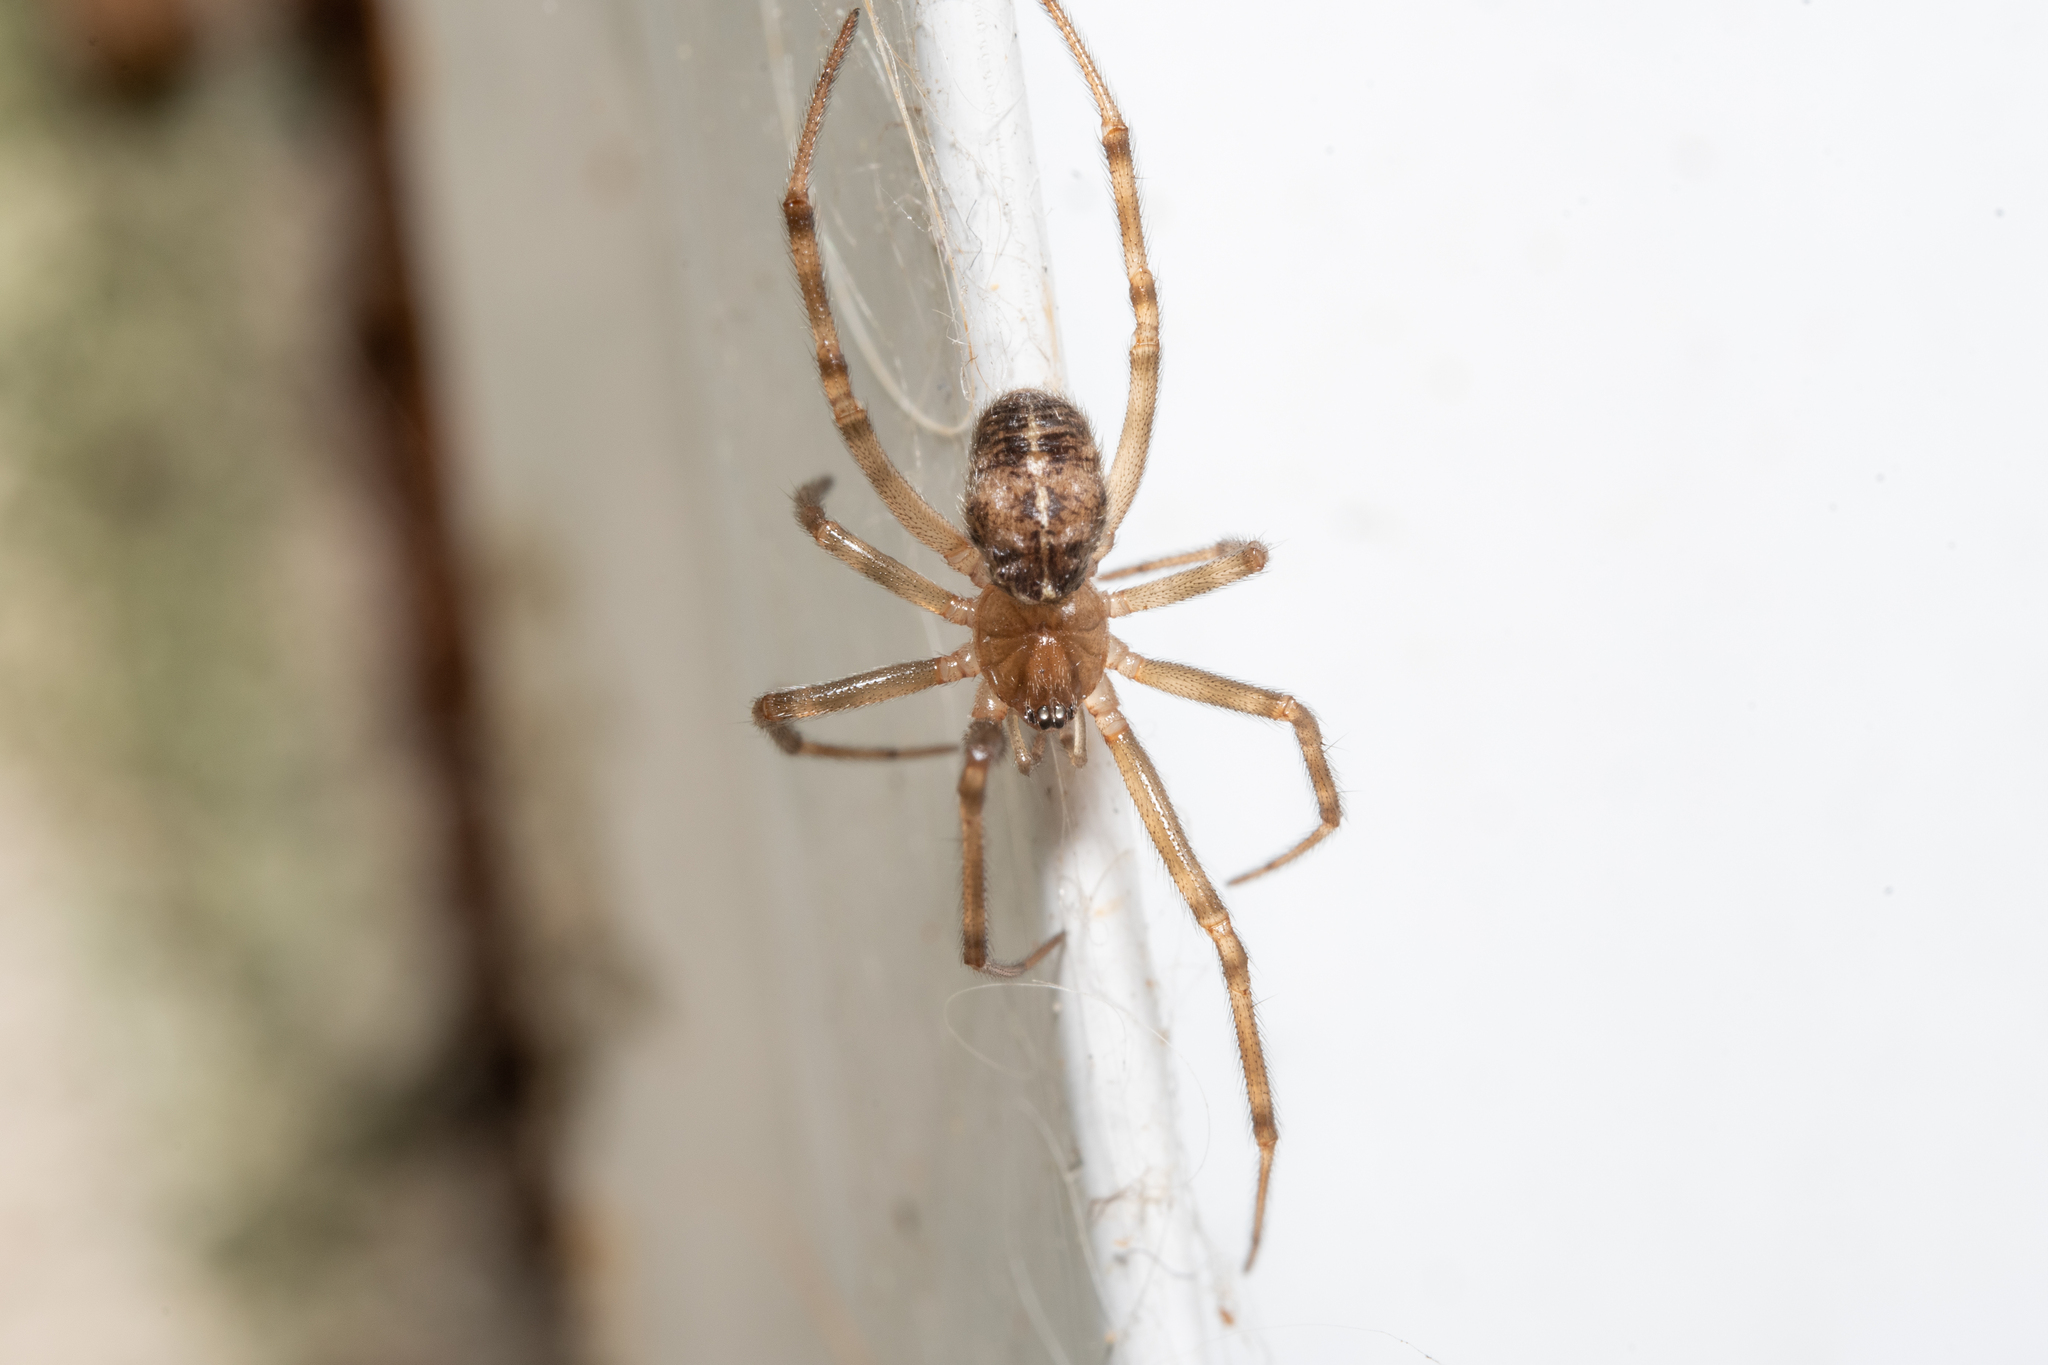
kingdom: Animalia
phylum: Arthropoda
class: Arachnida
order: Araneae
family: Theridiidae
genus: Steatoda
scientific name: Steatoda castanea
